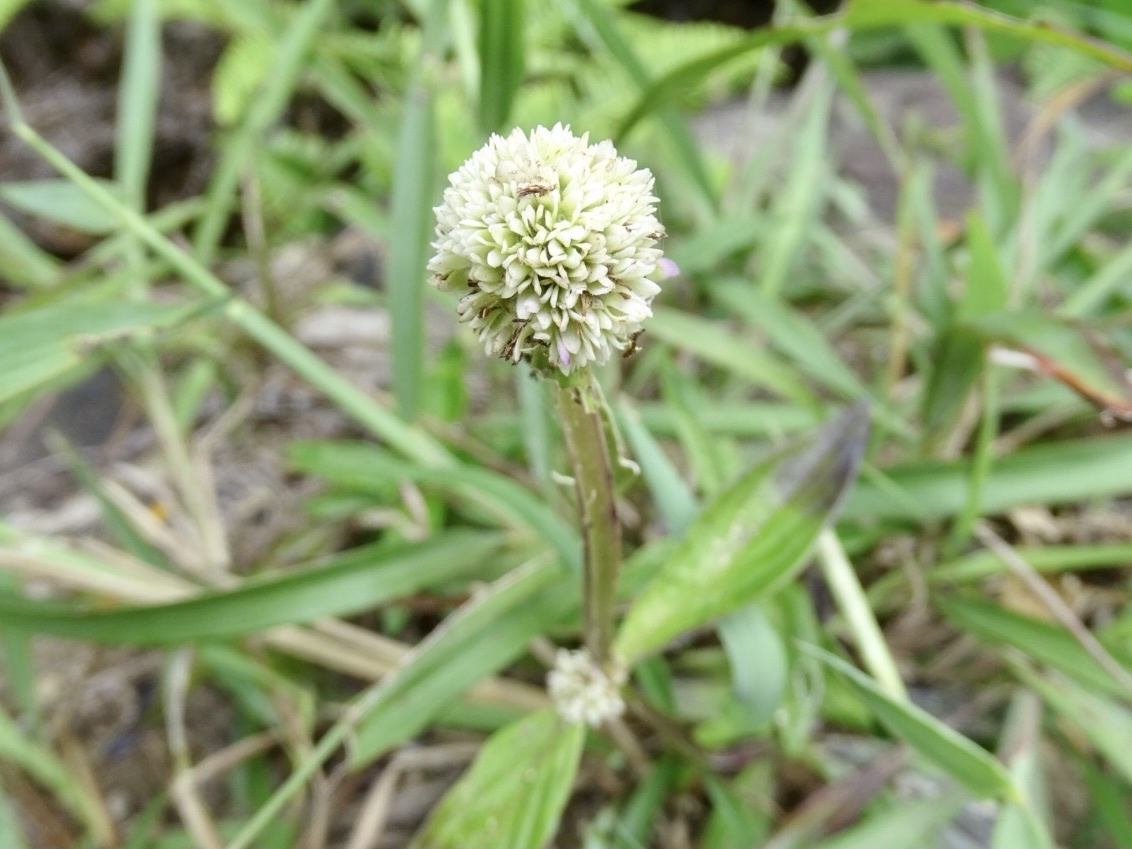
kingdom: Plantae
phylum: Tracheophyta
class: Magnoliopsida
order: Gentianales
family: Rubiaceae
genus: Hedyotis
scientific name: Hedyotis uncinella
